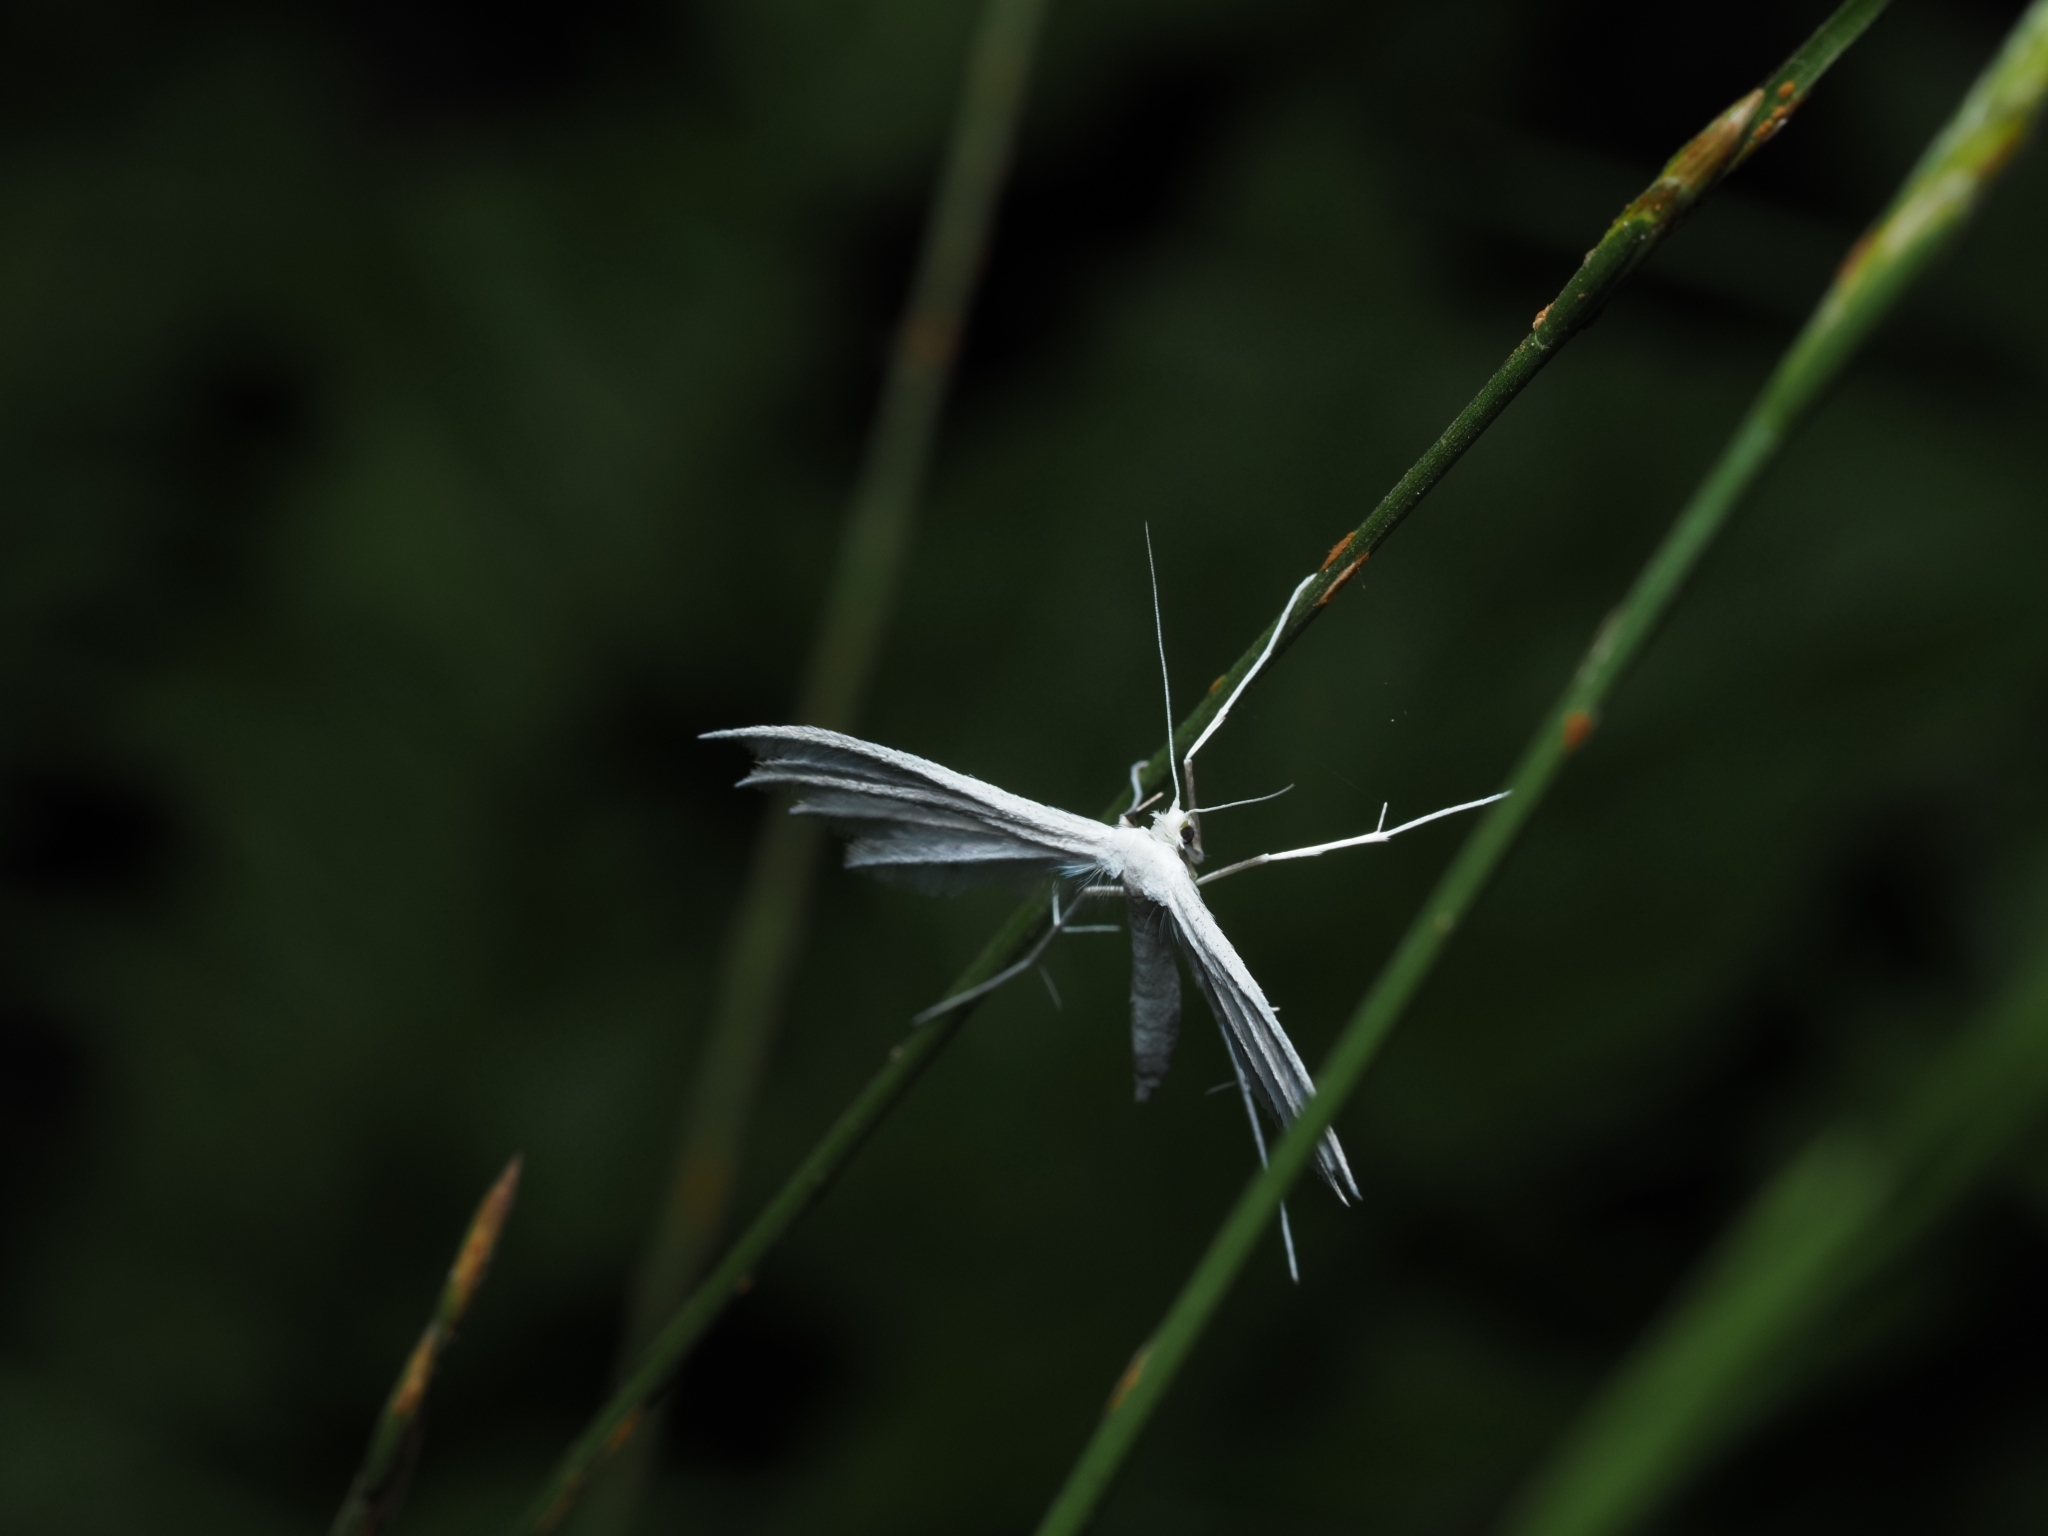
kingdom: Animalia
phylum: Arthropoda
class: Insecta
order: Lepidoptera
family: Pterophoridae
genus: Pterophorus
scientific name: Pterophorus pentadactyla
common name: White plume moth
